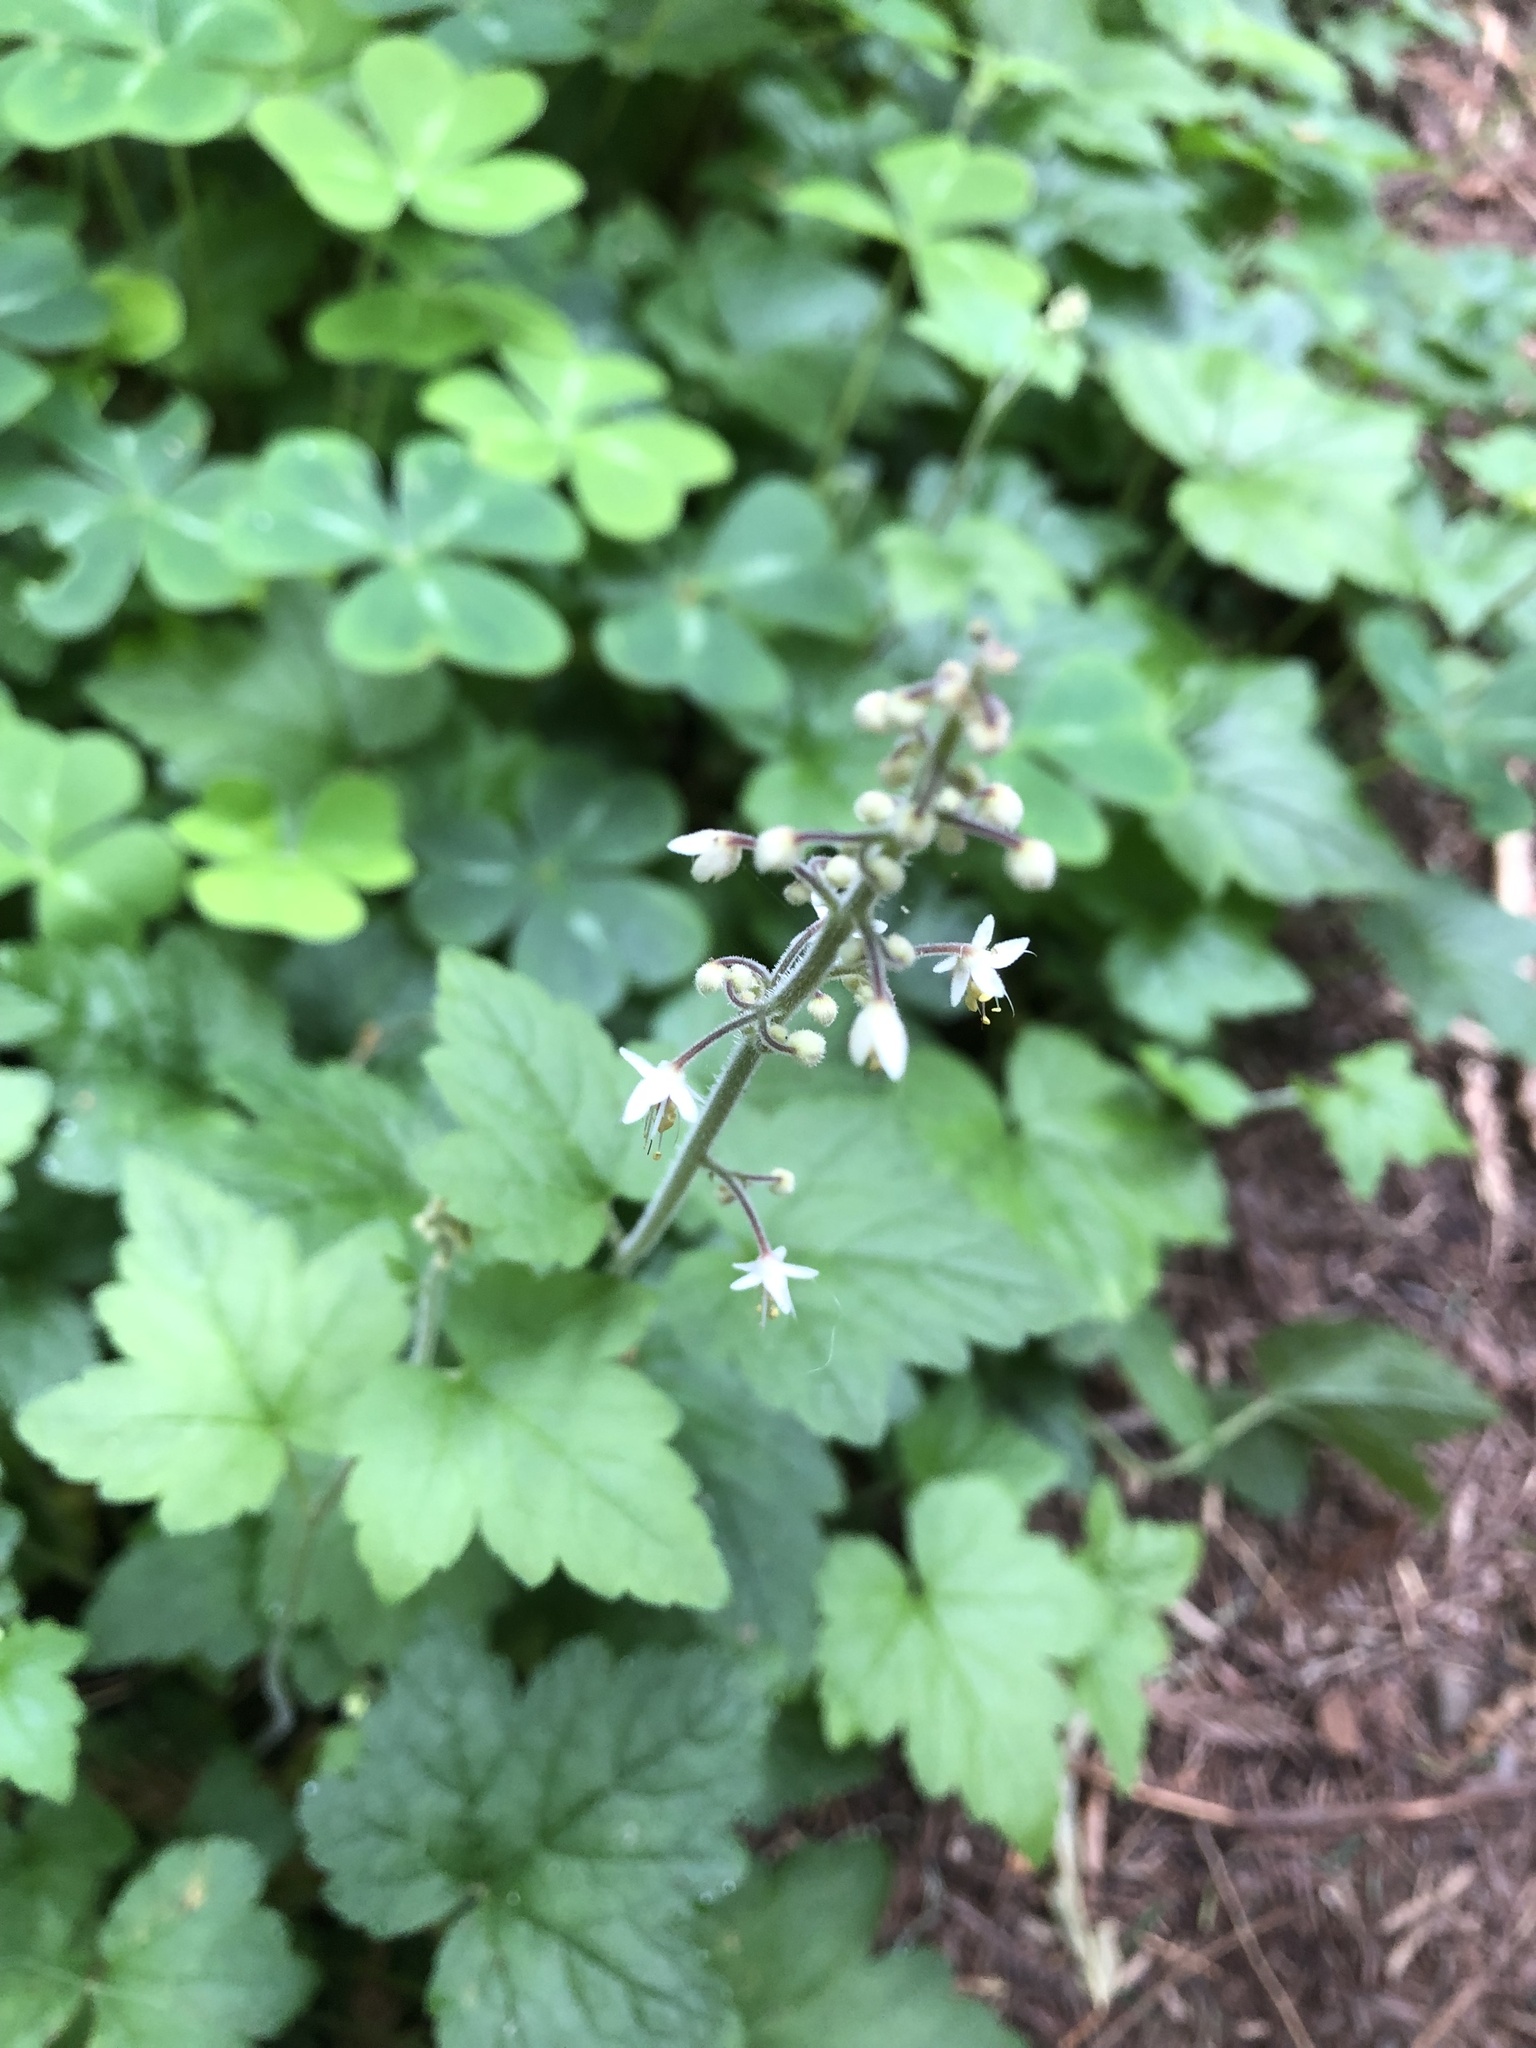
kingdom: Plantae
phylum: Tracheophyta
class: Magnoliopsida
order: Saxifragales
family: Saxifragaceae
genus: Tiarella
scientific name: Tiarella trifoliata
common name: Sugar-scoop
